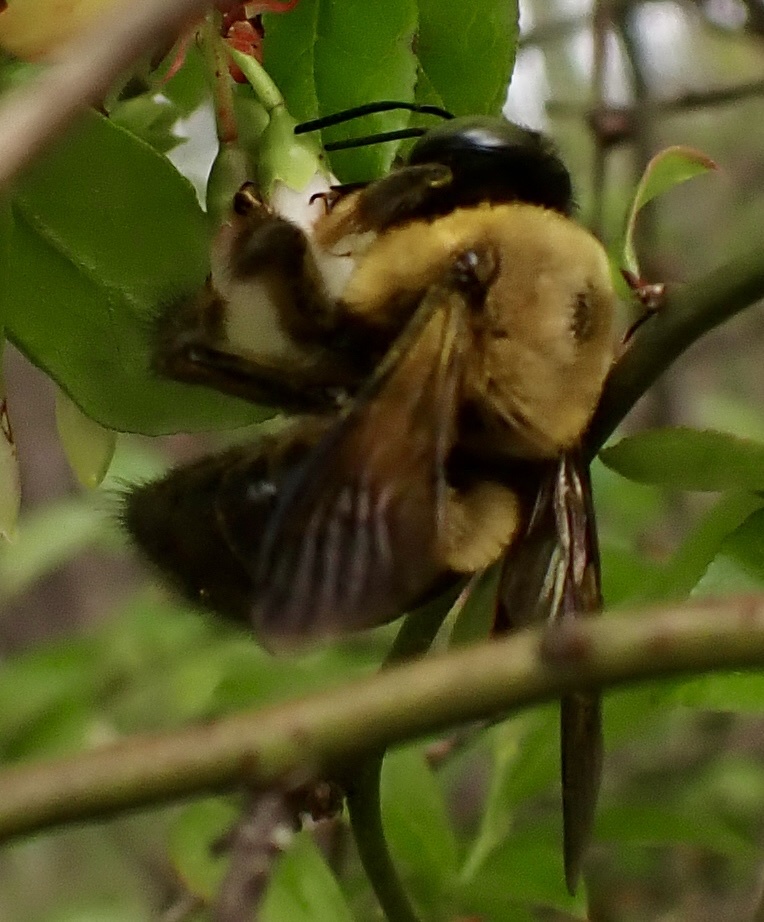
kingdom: Animalia
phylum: Arthropoda
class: Insecta
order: Hymenoptera
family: Apidae
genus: Xylocopa
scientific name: Xylocopa virginica
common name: Carpenter bee
